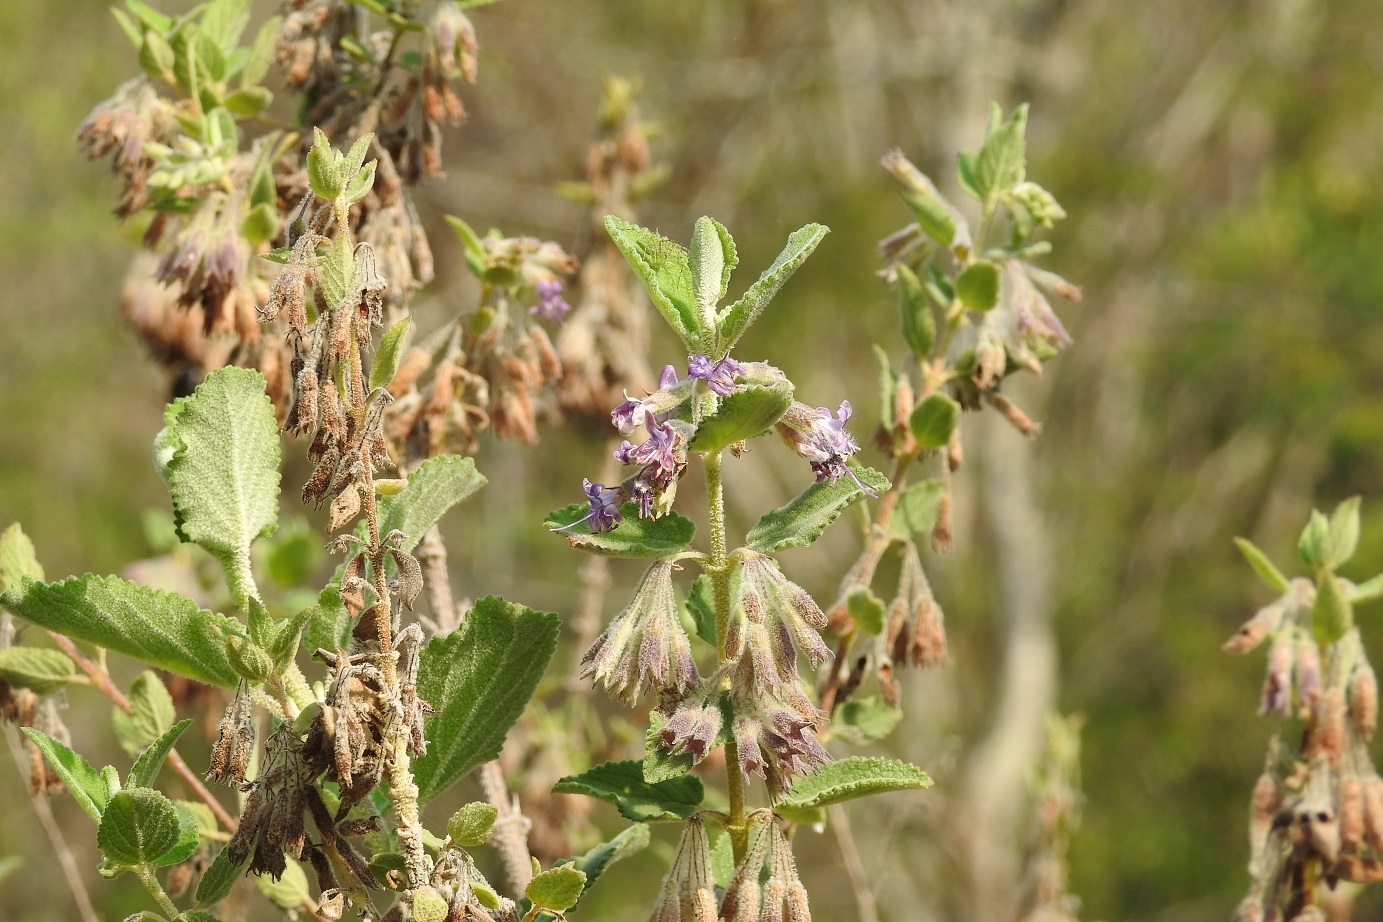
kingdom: Plantae
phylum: Tracheophyta
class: Magnoliopsida
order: Lamiales
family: Lamiaceae
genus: Condea
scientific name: Condea tomentosa
